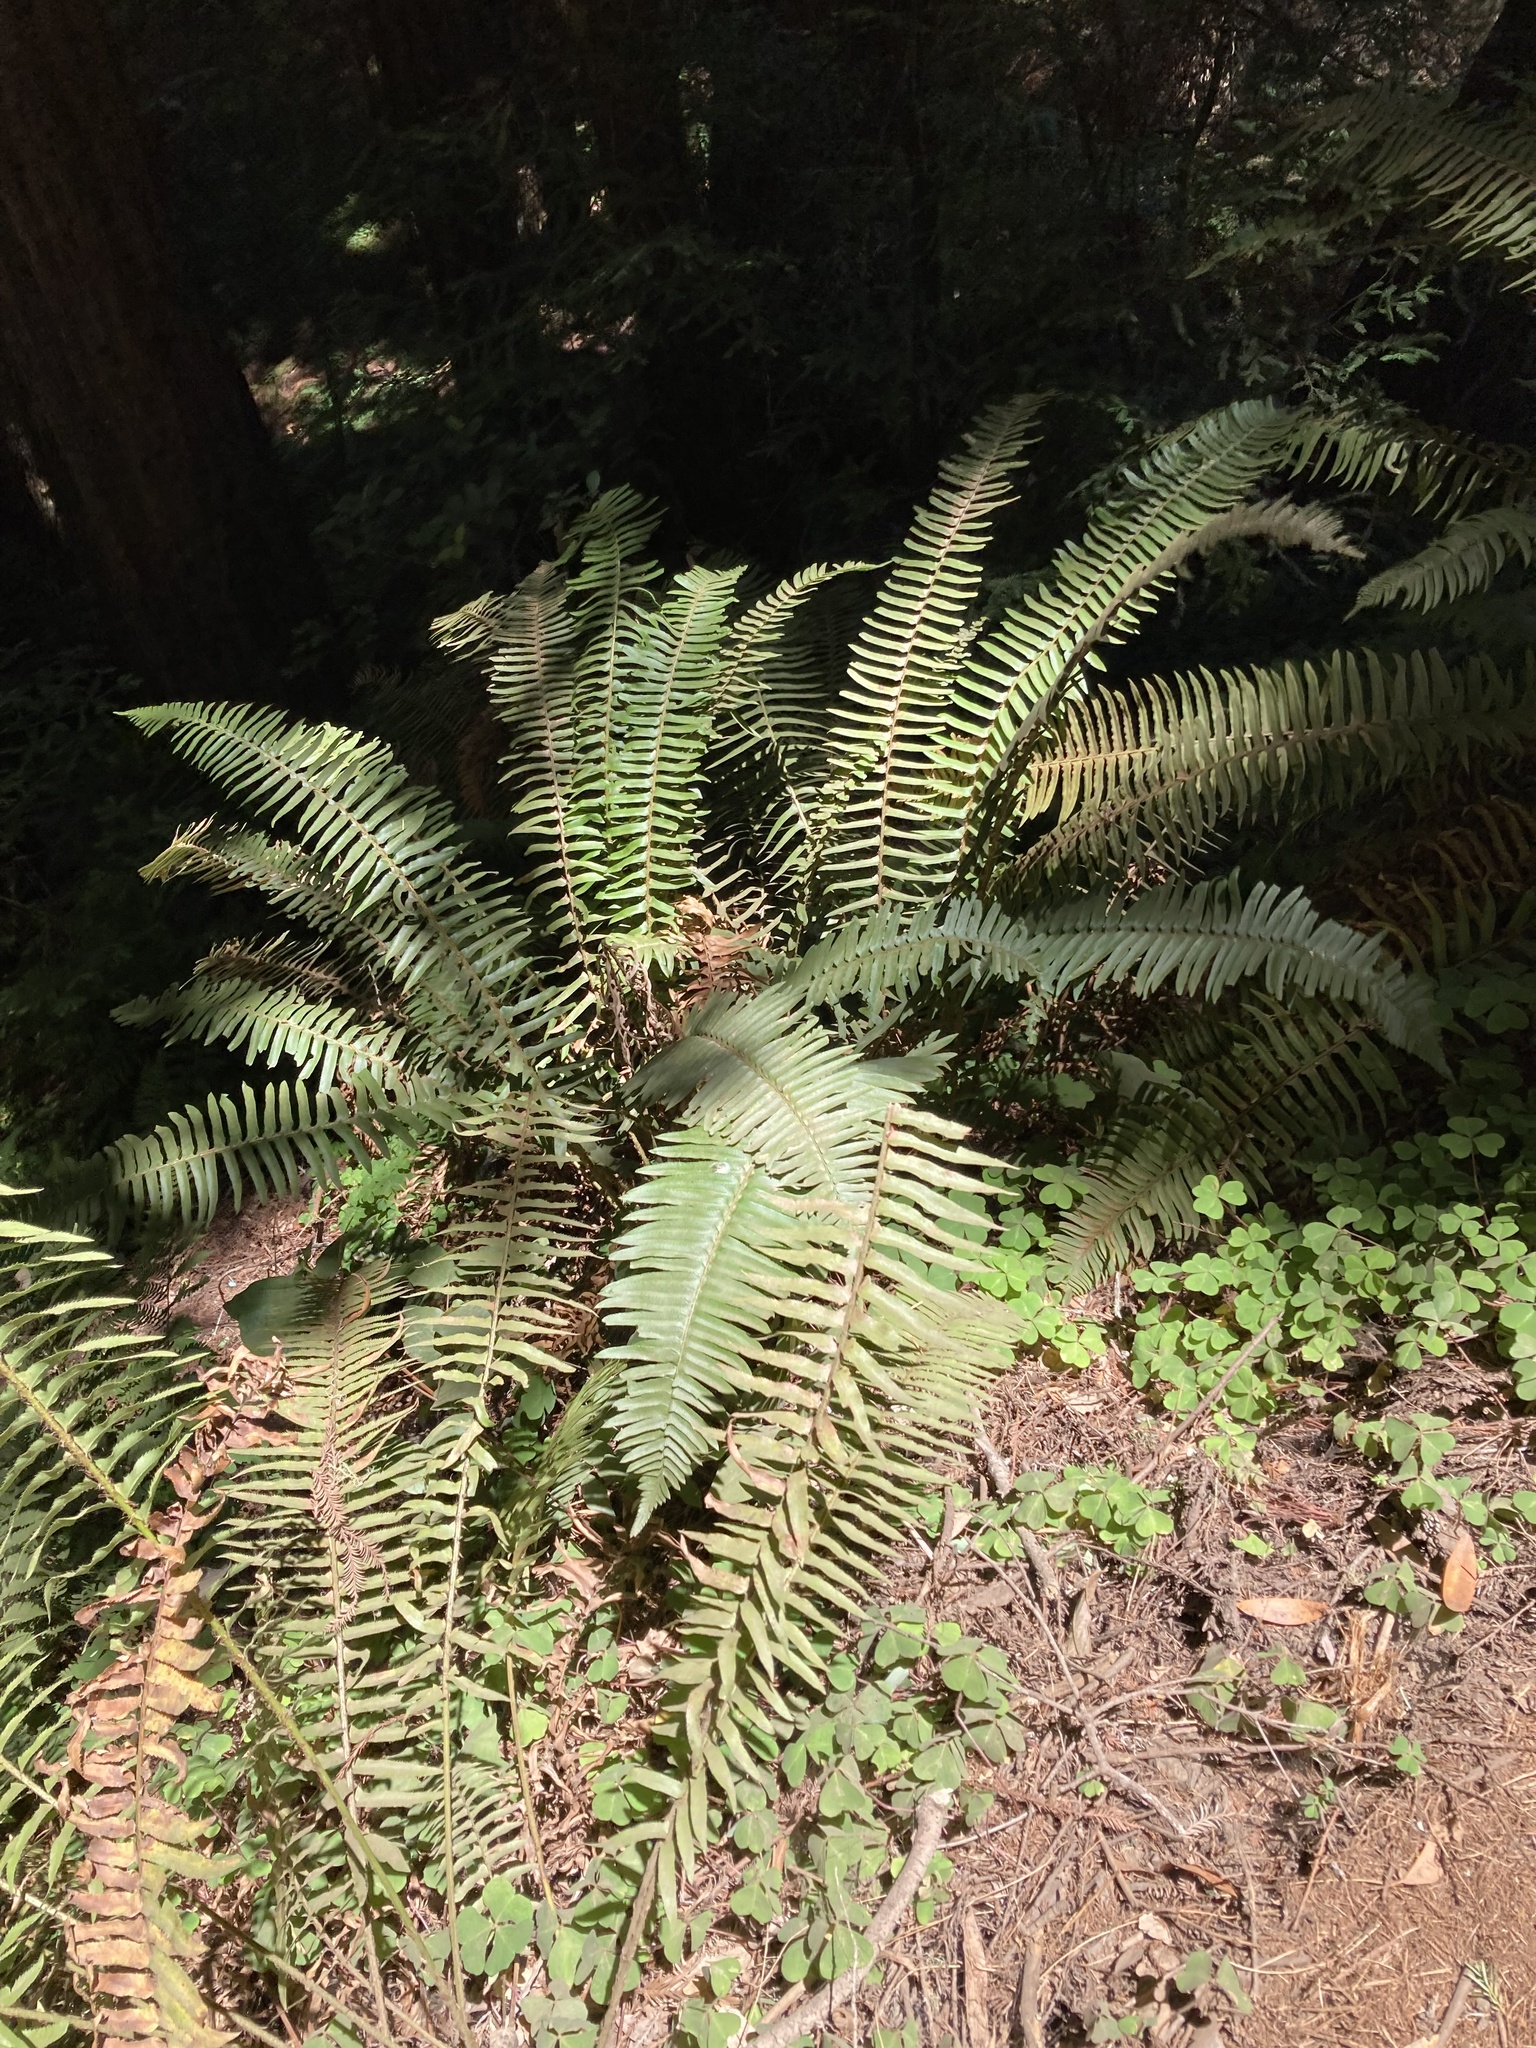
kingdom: Plantae
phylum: Tracheophyta
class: Polypodiopsida
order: Polypodiales
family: Dryopteridaceae
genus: Polystichum
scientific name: Polystichum munitum
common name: Western sword-fern
